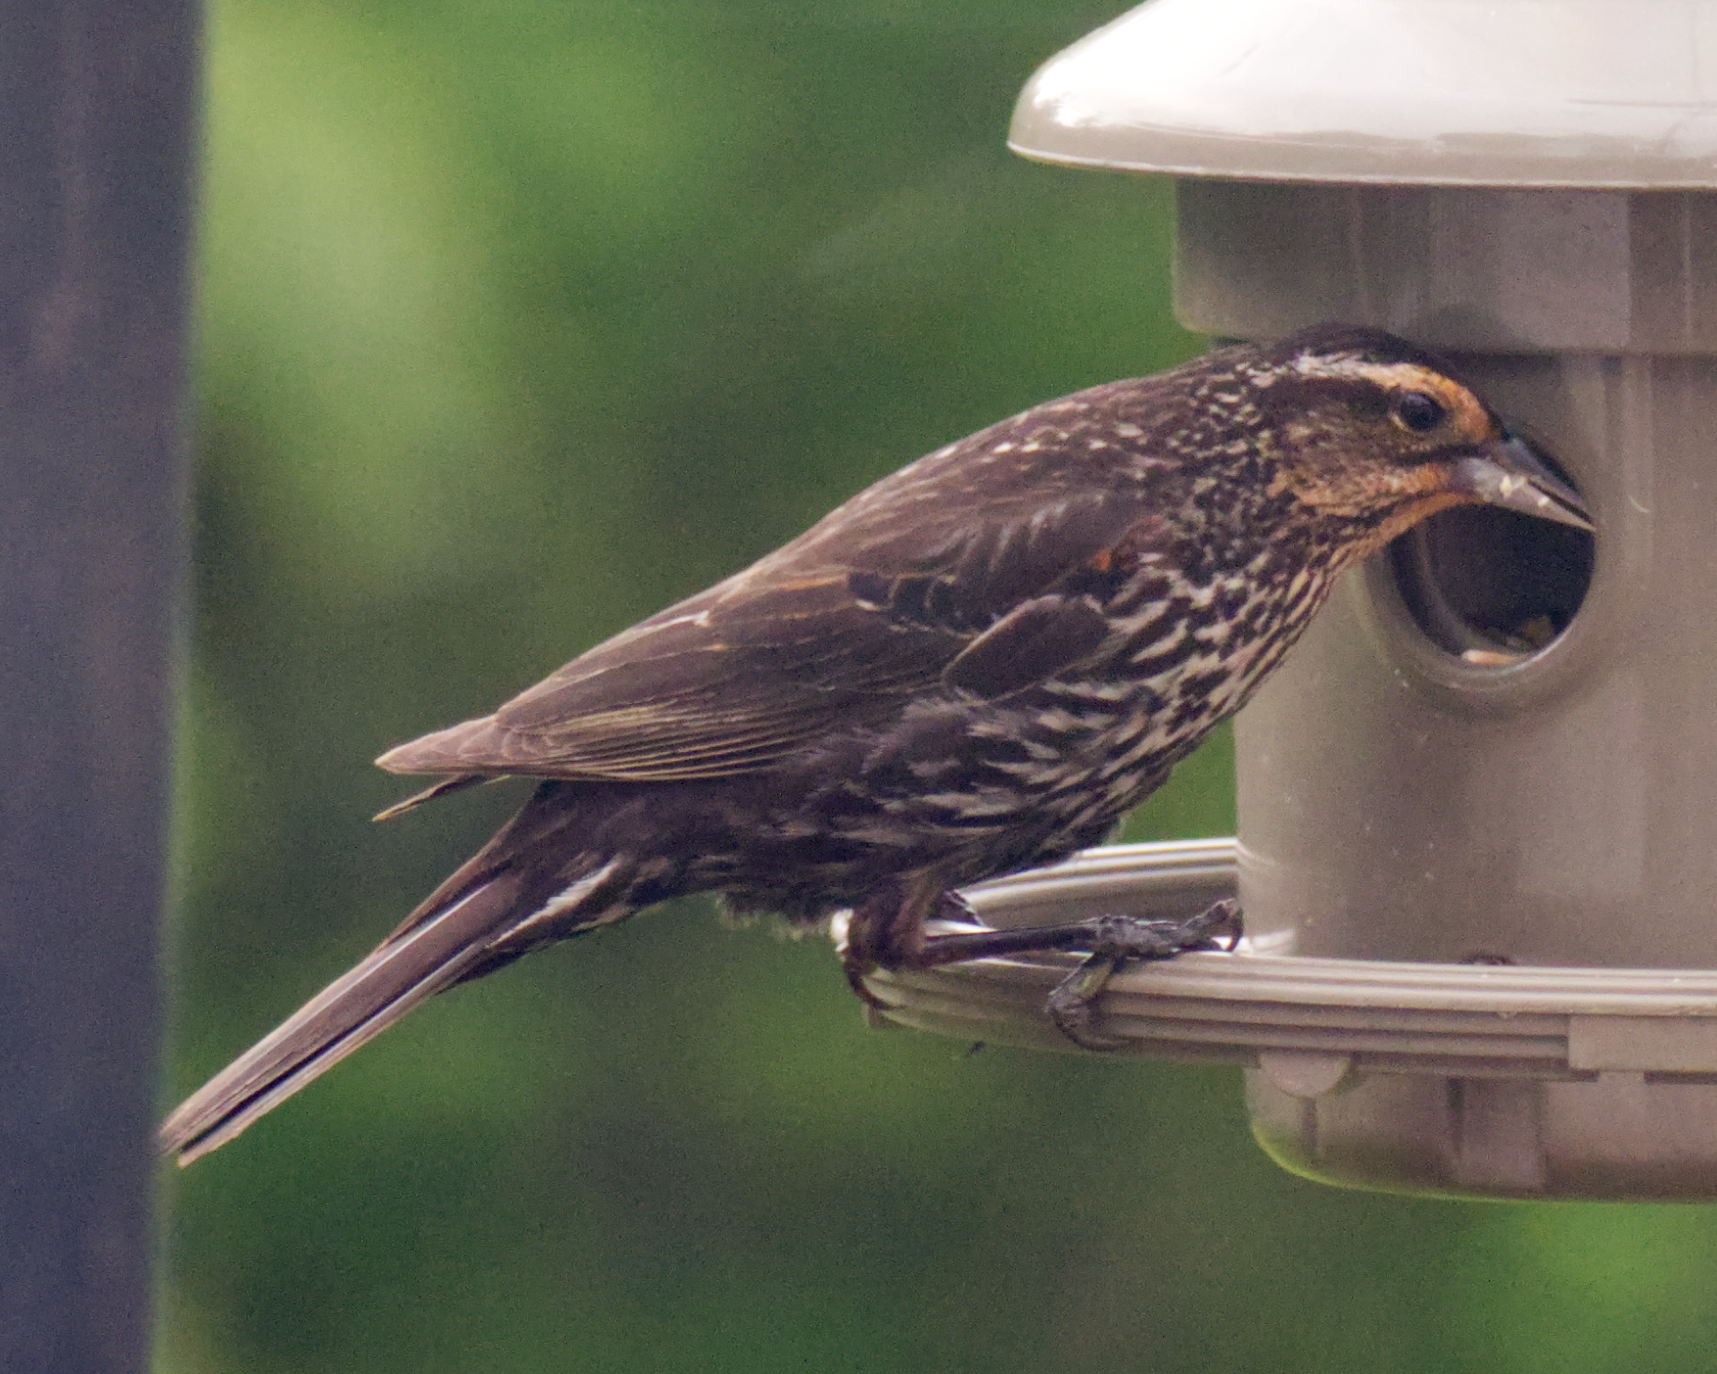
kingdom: Animalia
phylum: Chordata
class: Aves
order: Passeriformes
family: Icteridae
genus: Agelaius
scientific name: Agelaius phoeniceus
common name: Red-winged blackbird
